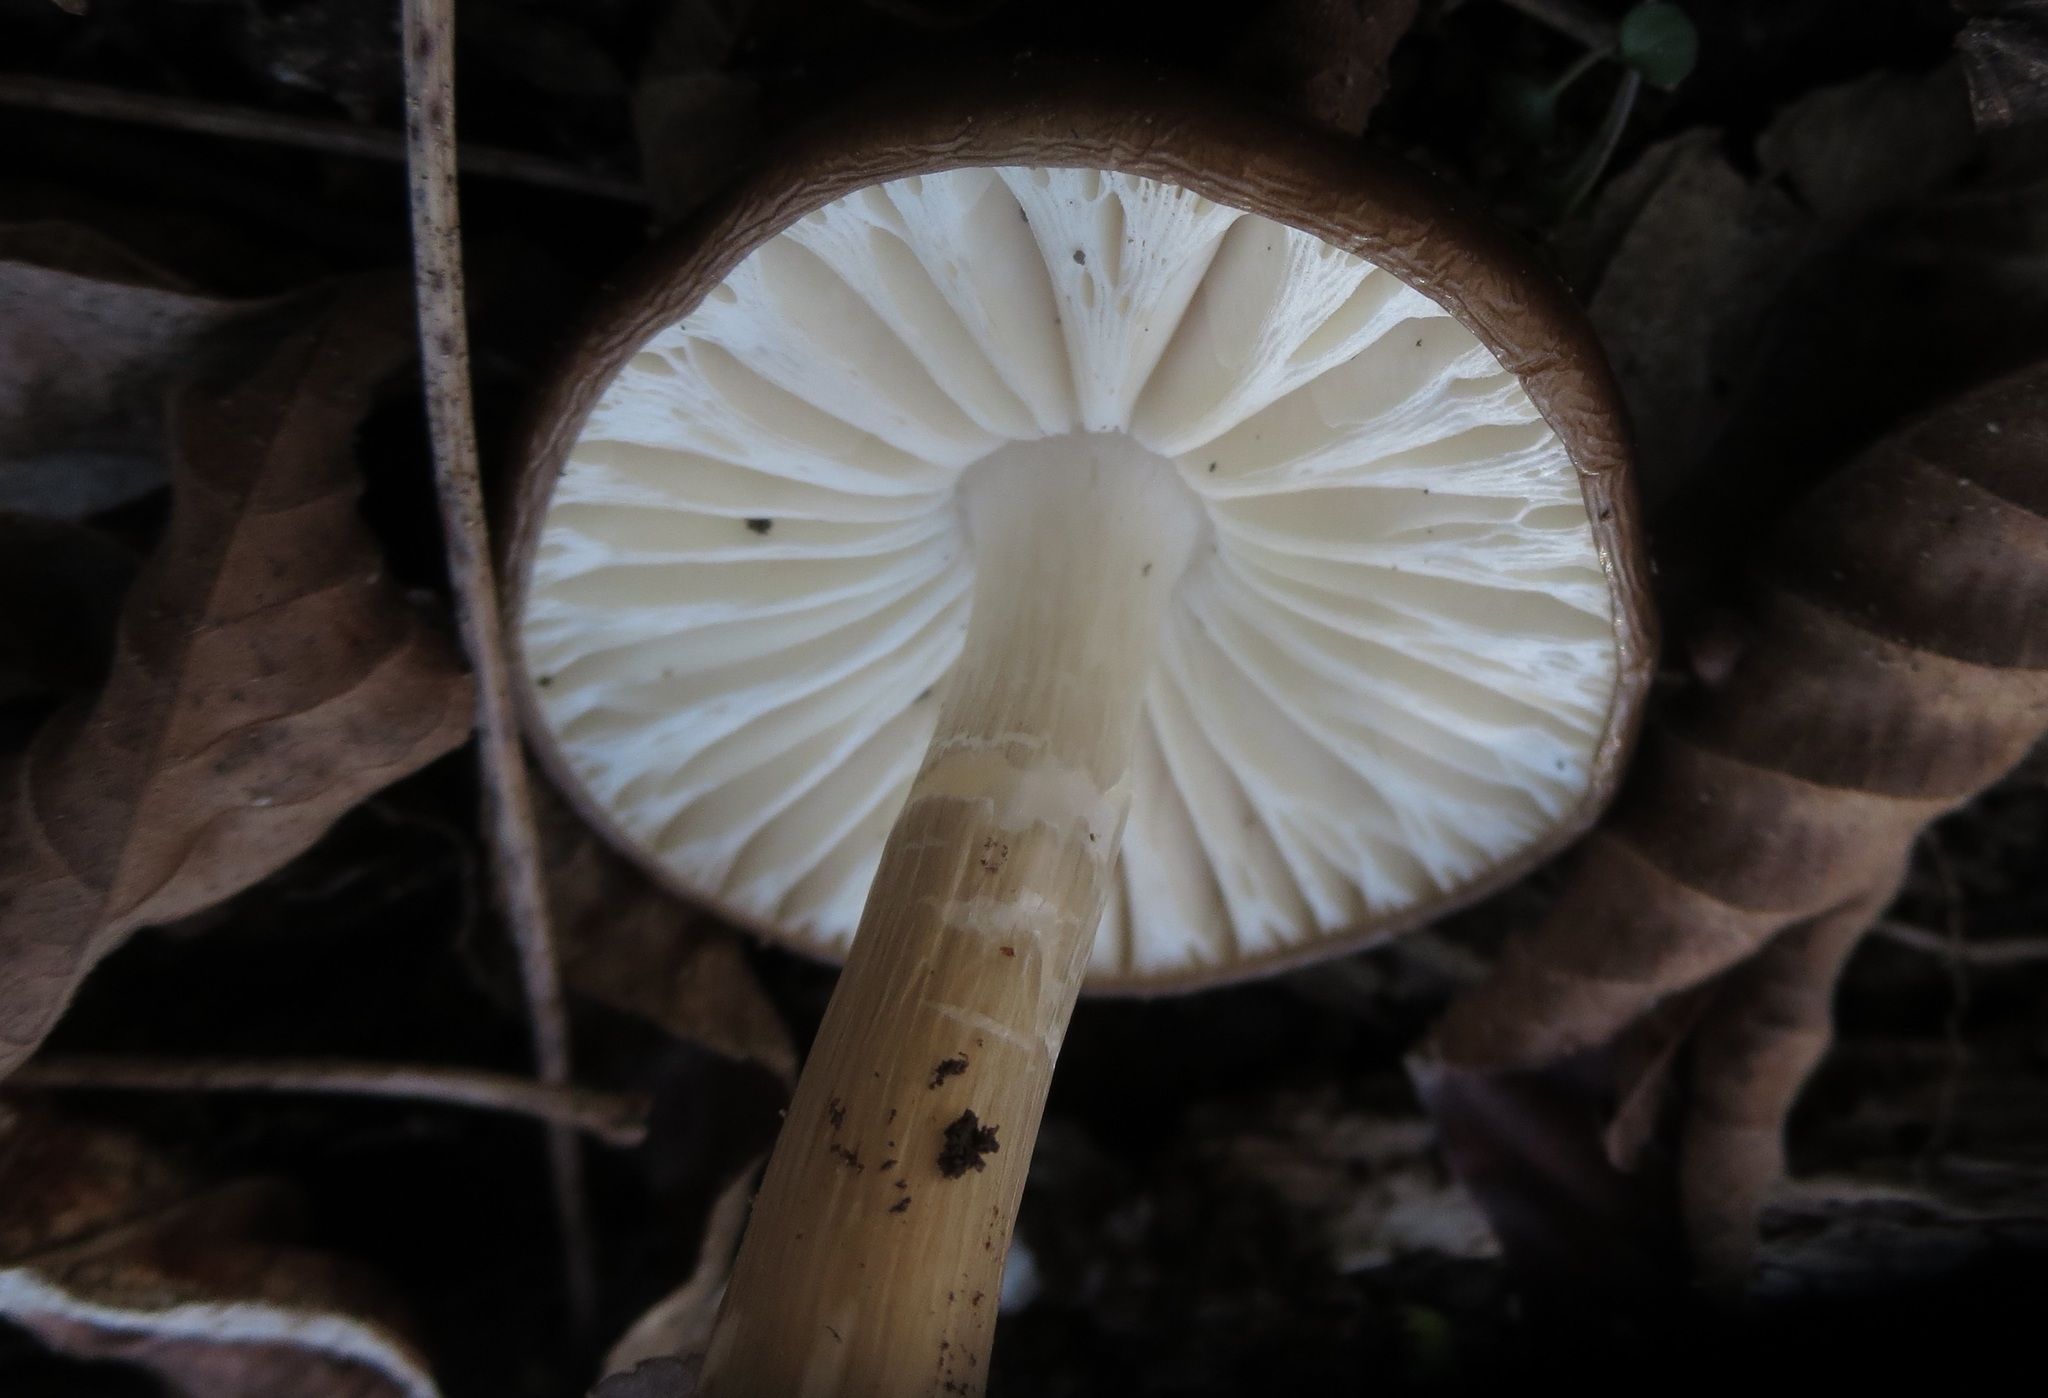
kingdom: Fungi
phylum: Basidiomycota
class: Agaricomycetes
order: Agaricales
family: Pluteaceae
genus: Pluteus
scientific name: Pluteus petasatus
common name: Scaly shield
